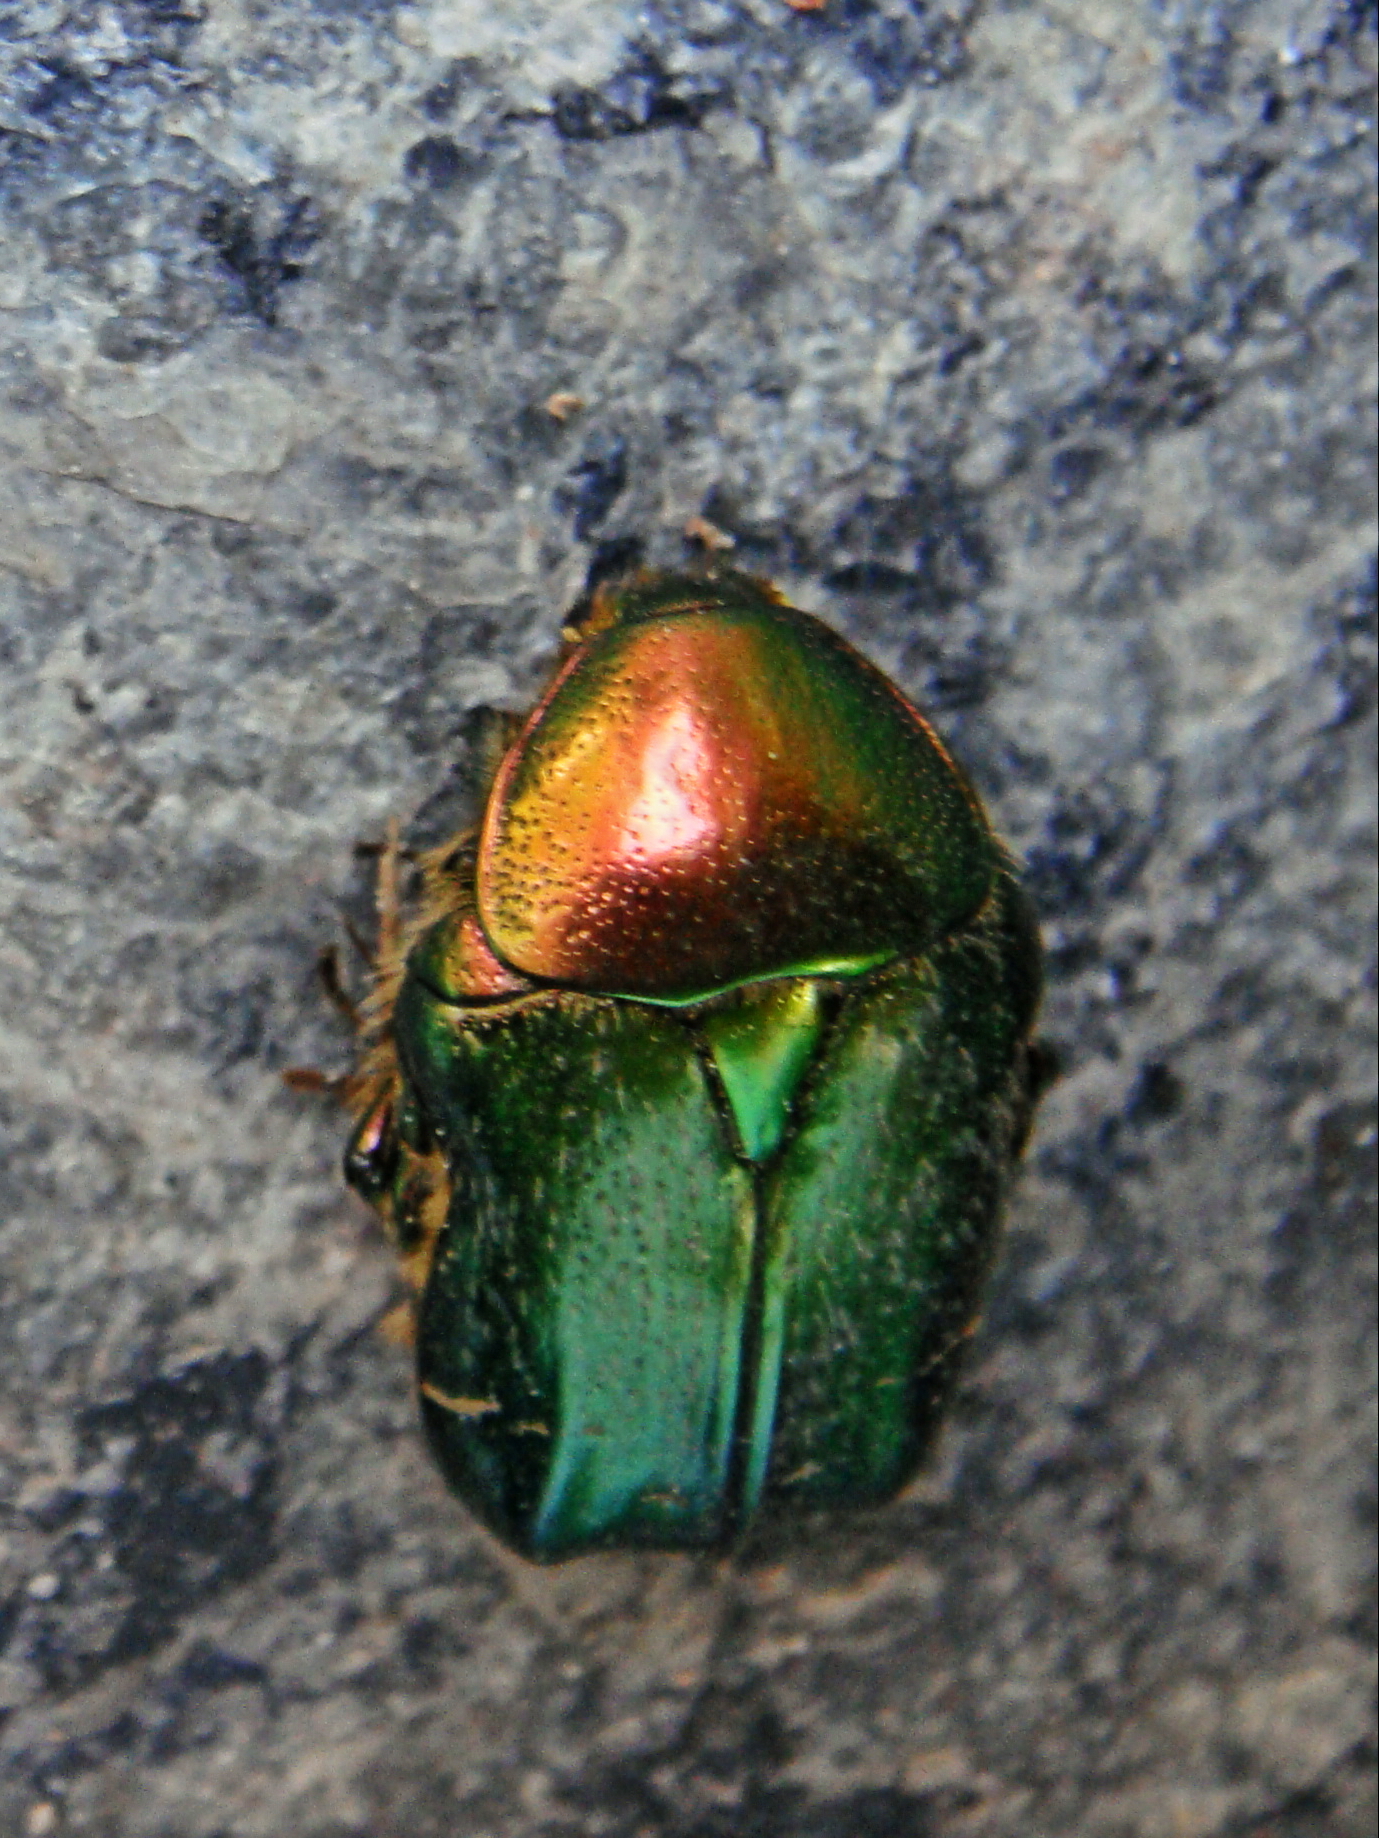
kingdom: Animalia
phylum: Arthropoda
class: Insecta
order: Coleoptera
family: Scarabaeidae
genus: Cetonia
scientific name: Cetonia aurata
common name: Rose chafer
